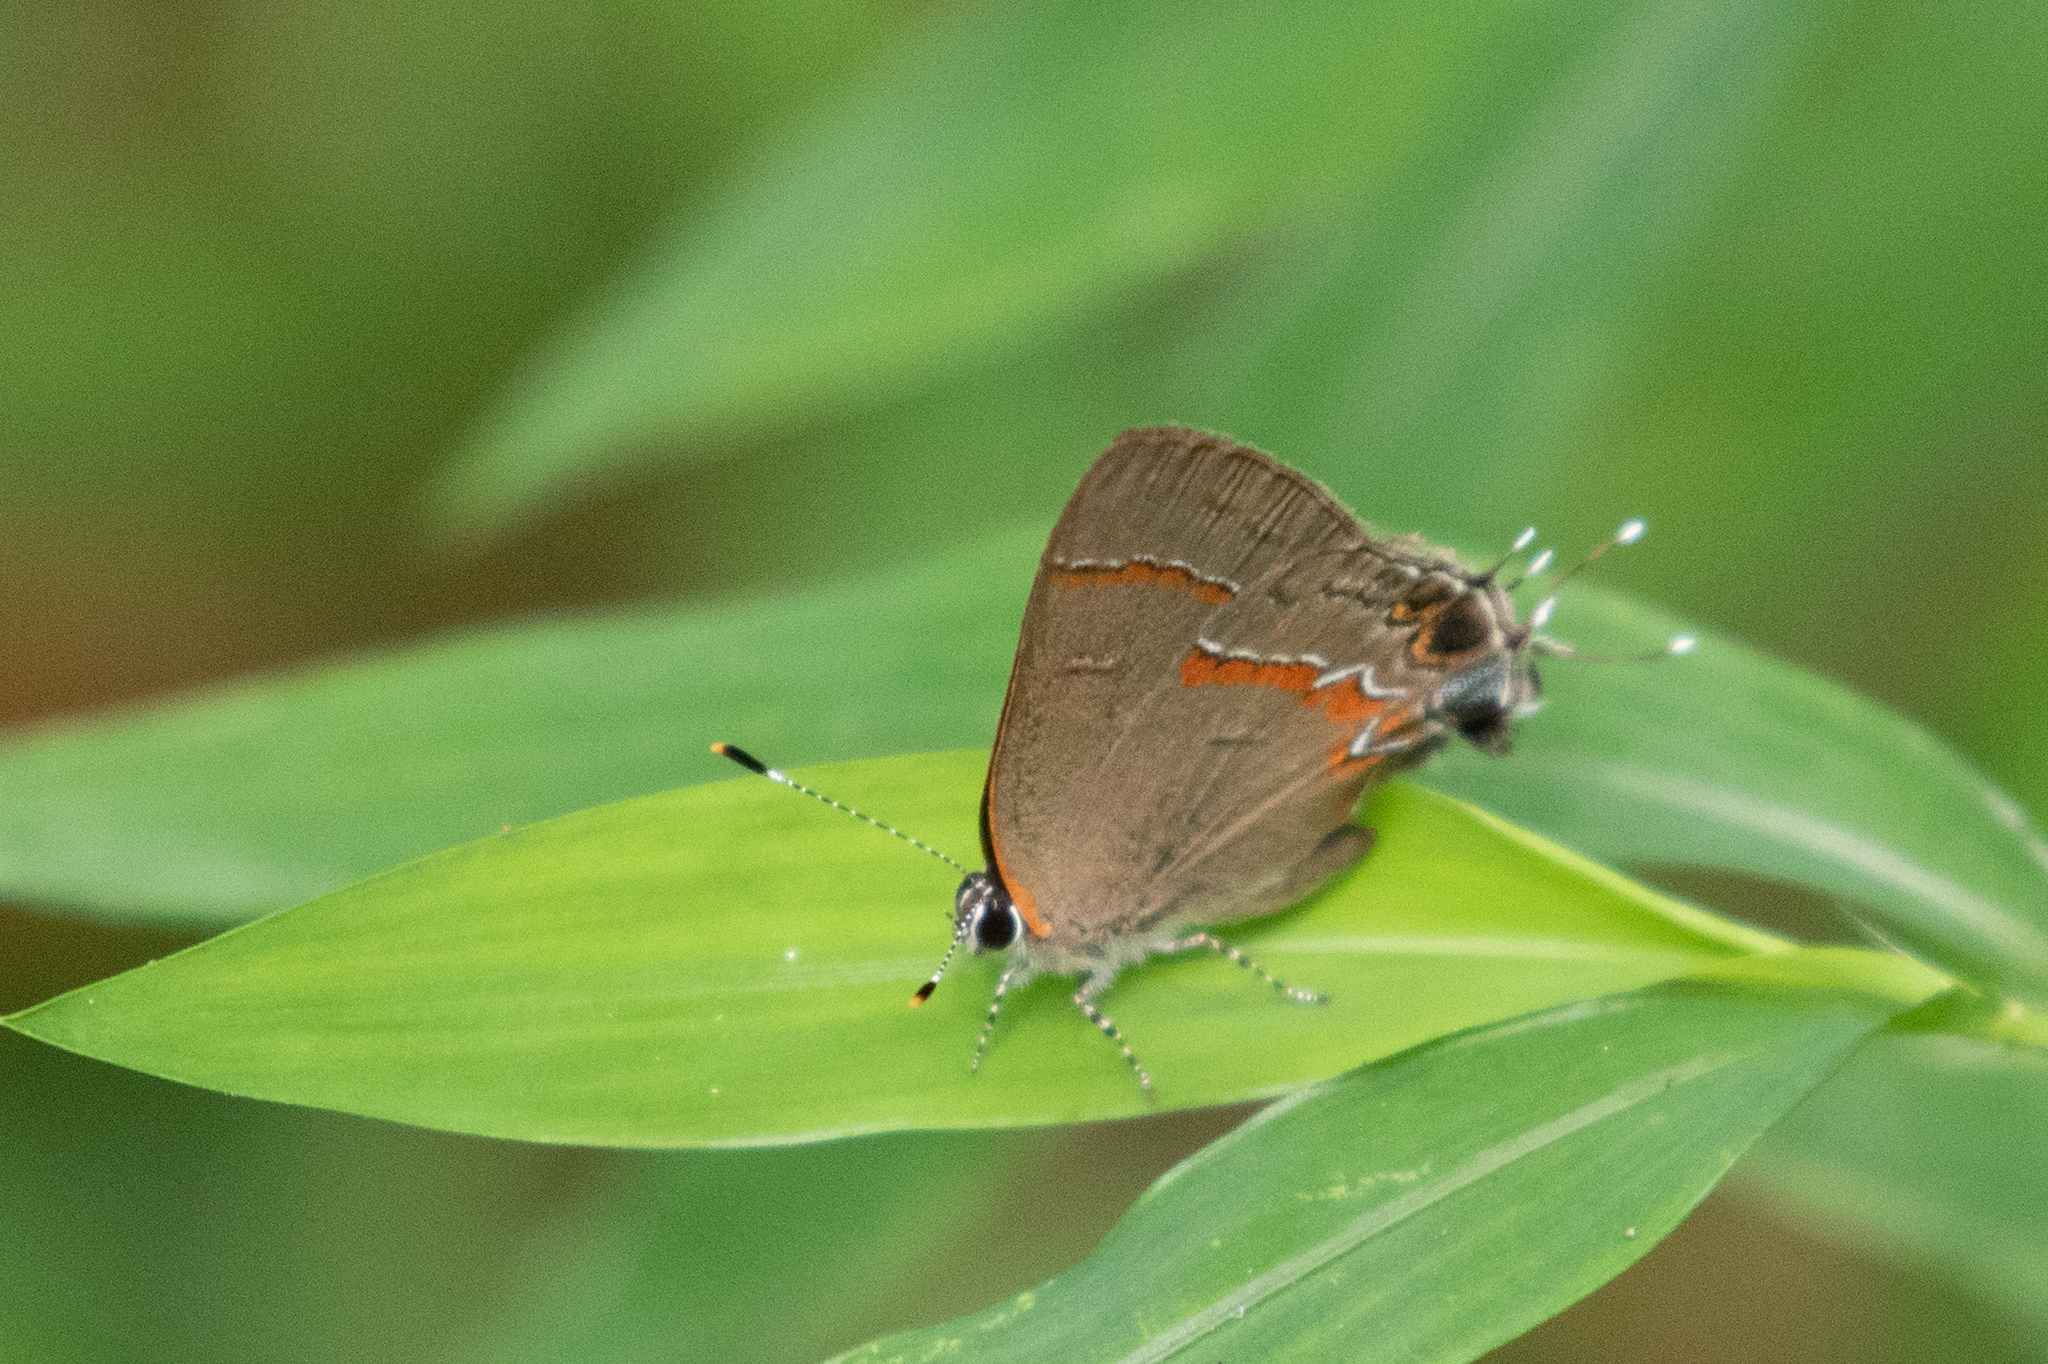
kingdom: Animalia
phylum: Arthropoda
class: Insecta
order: Lepidoptera
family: Lycaenidae
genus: Calycopis
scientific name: Calycopis cecrops
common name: Red-banded hairstreak
